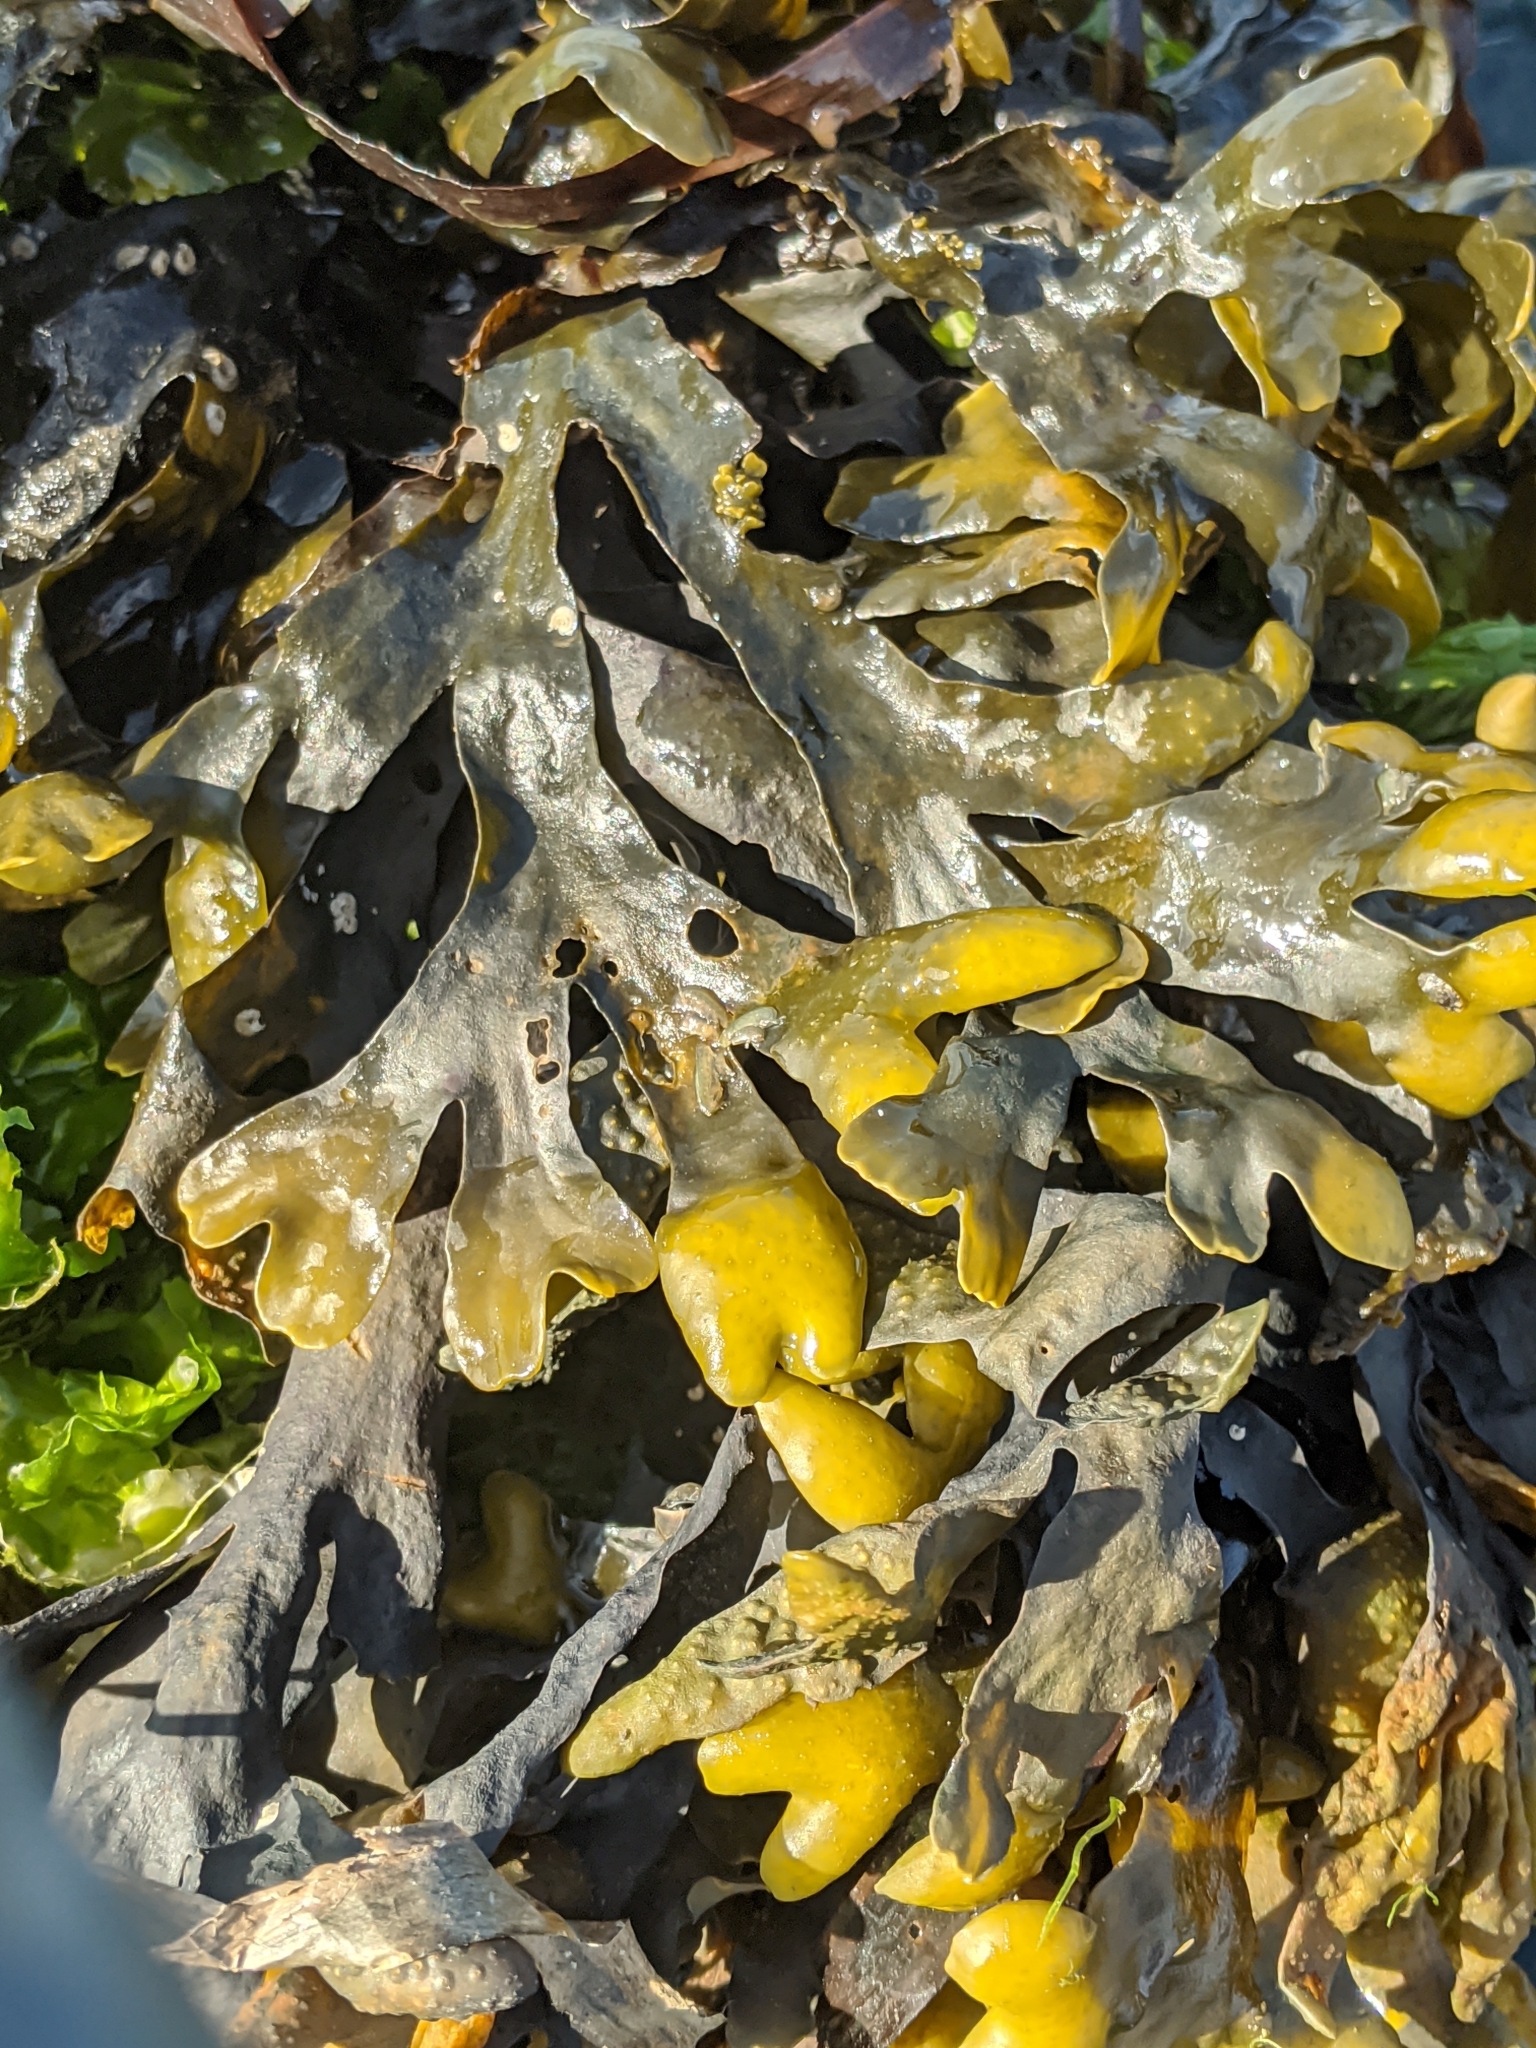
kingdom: Chromista
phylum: Ochrophyta
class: Phaeophyceae
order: Fucales
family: Fucaceae
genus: Fucus
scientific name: Fucus distichus
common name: Rockweed
